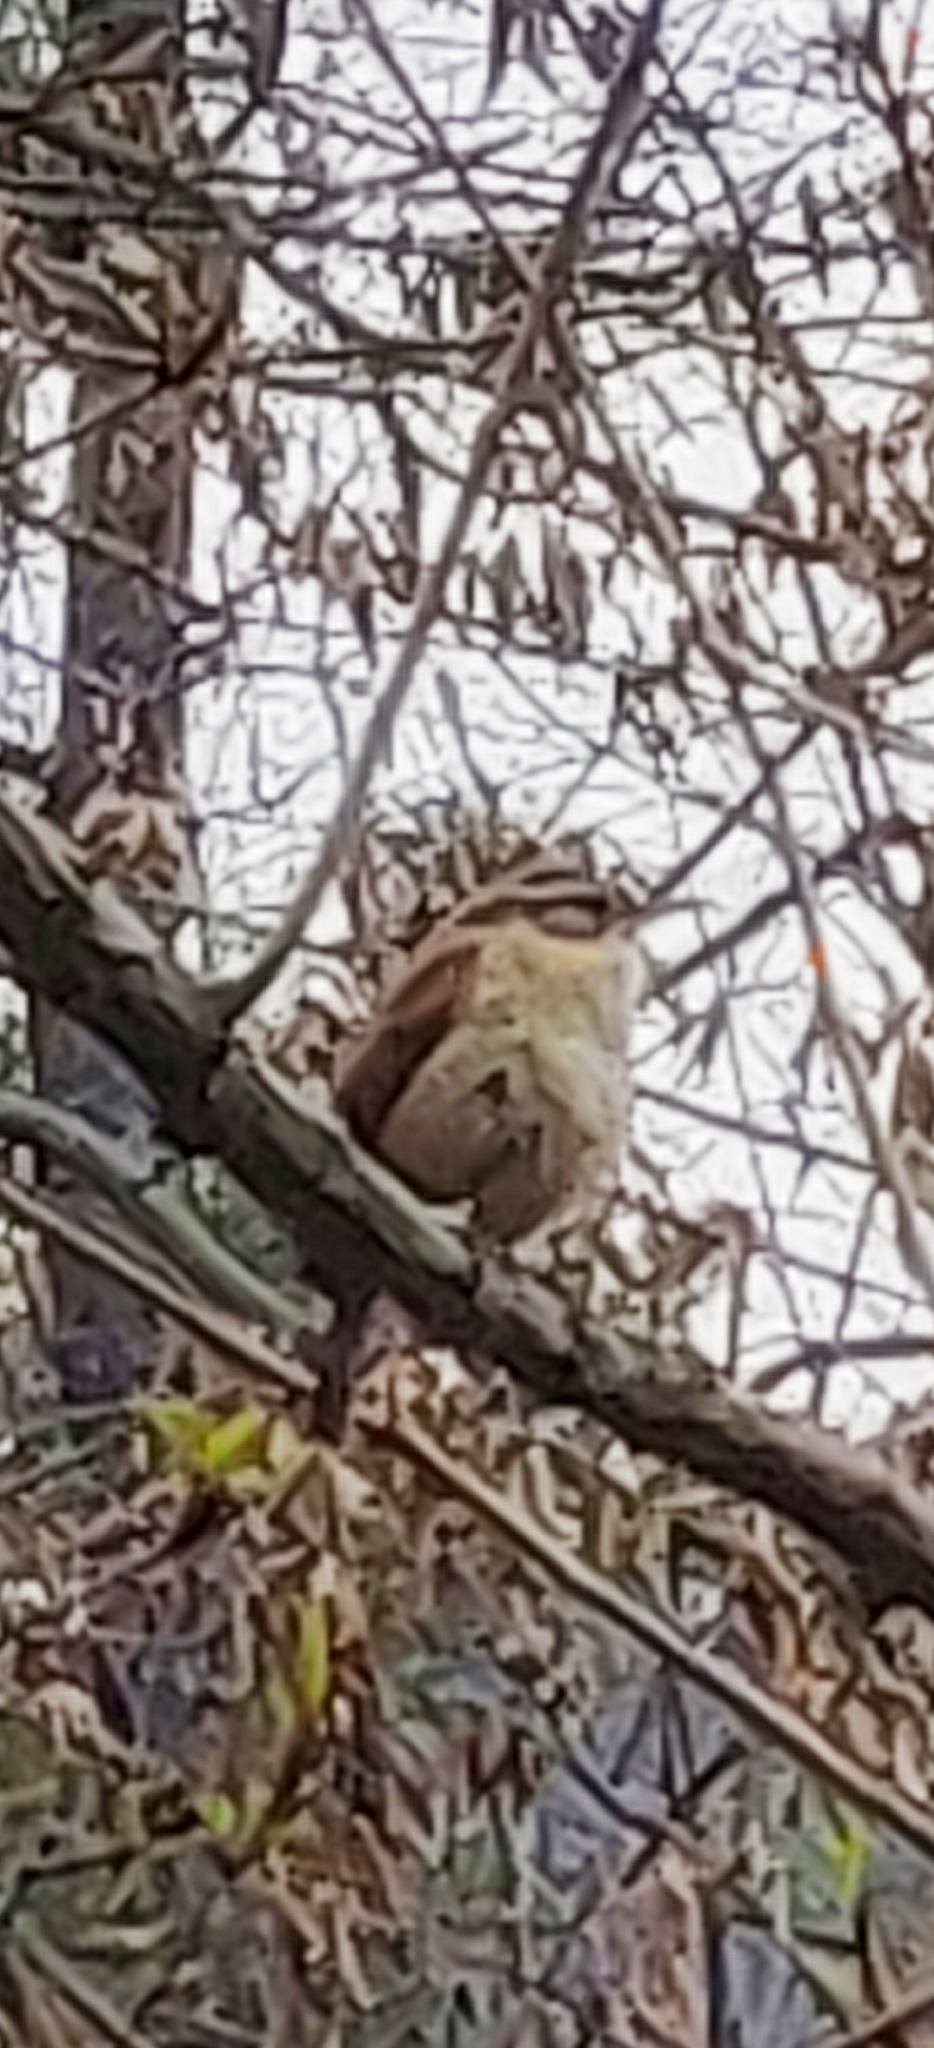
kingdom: Animalia
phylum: Chordata
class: Aves
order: Passeriformes
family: Troglodytidae
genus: Thryothorus
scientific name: Thryothorus ludovicianus
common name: Carolina wren
